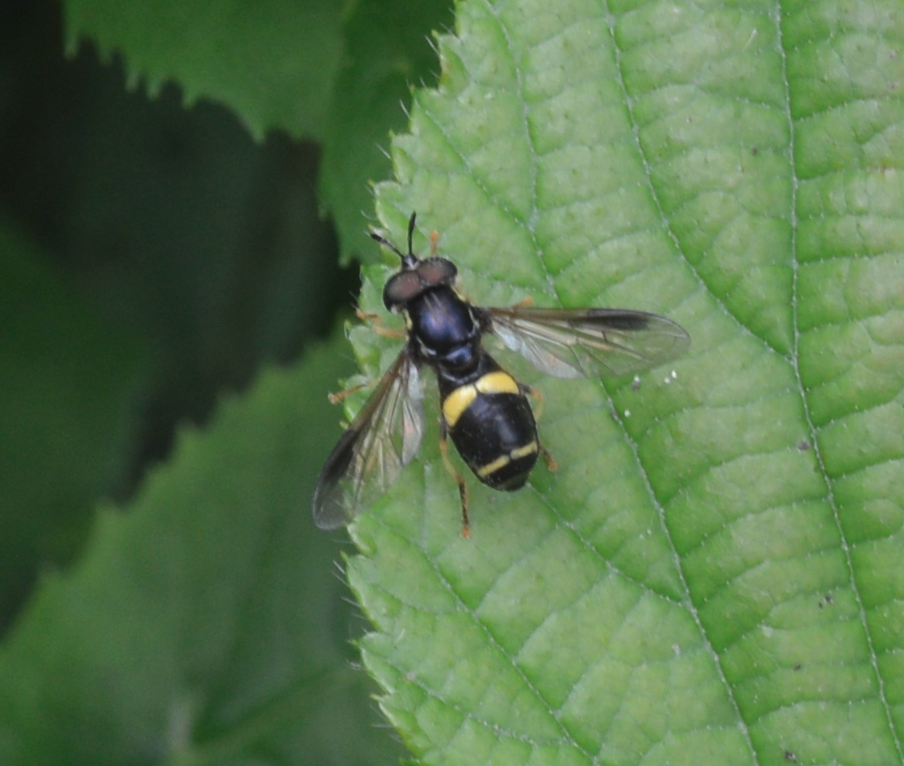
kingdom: Animalia
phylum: Arthropoda
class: Insecta
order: Diptera
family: Syrphidae
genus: Chrysotoxum
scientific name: Chrysotoxum bicincta
